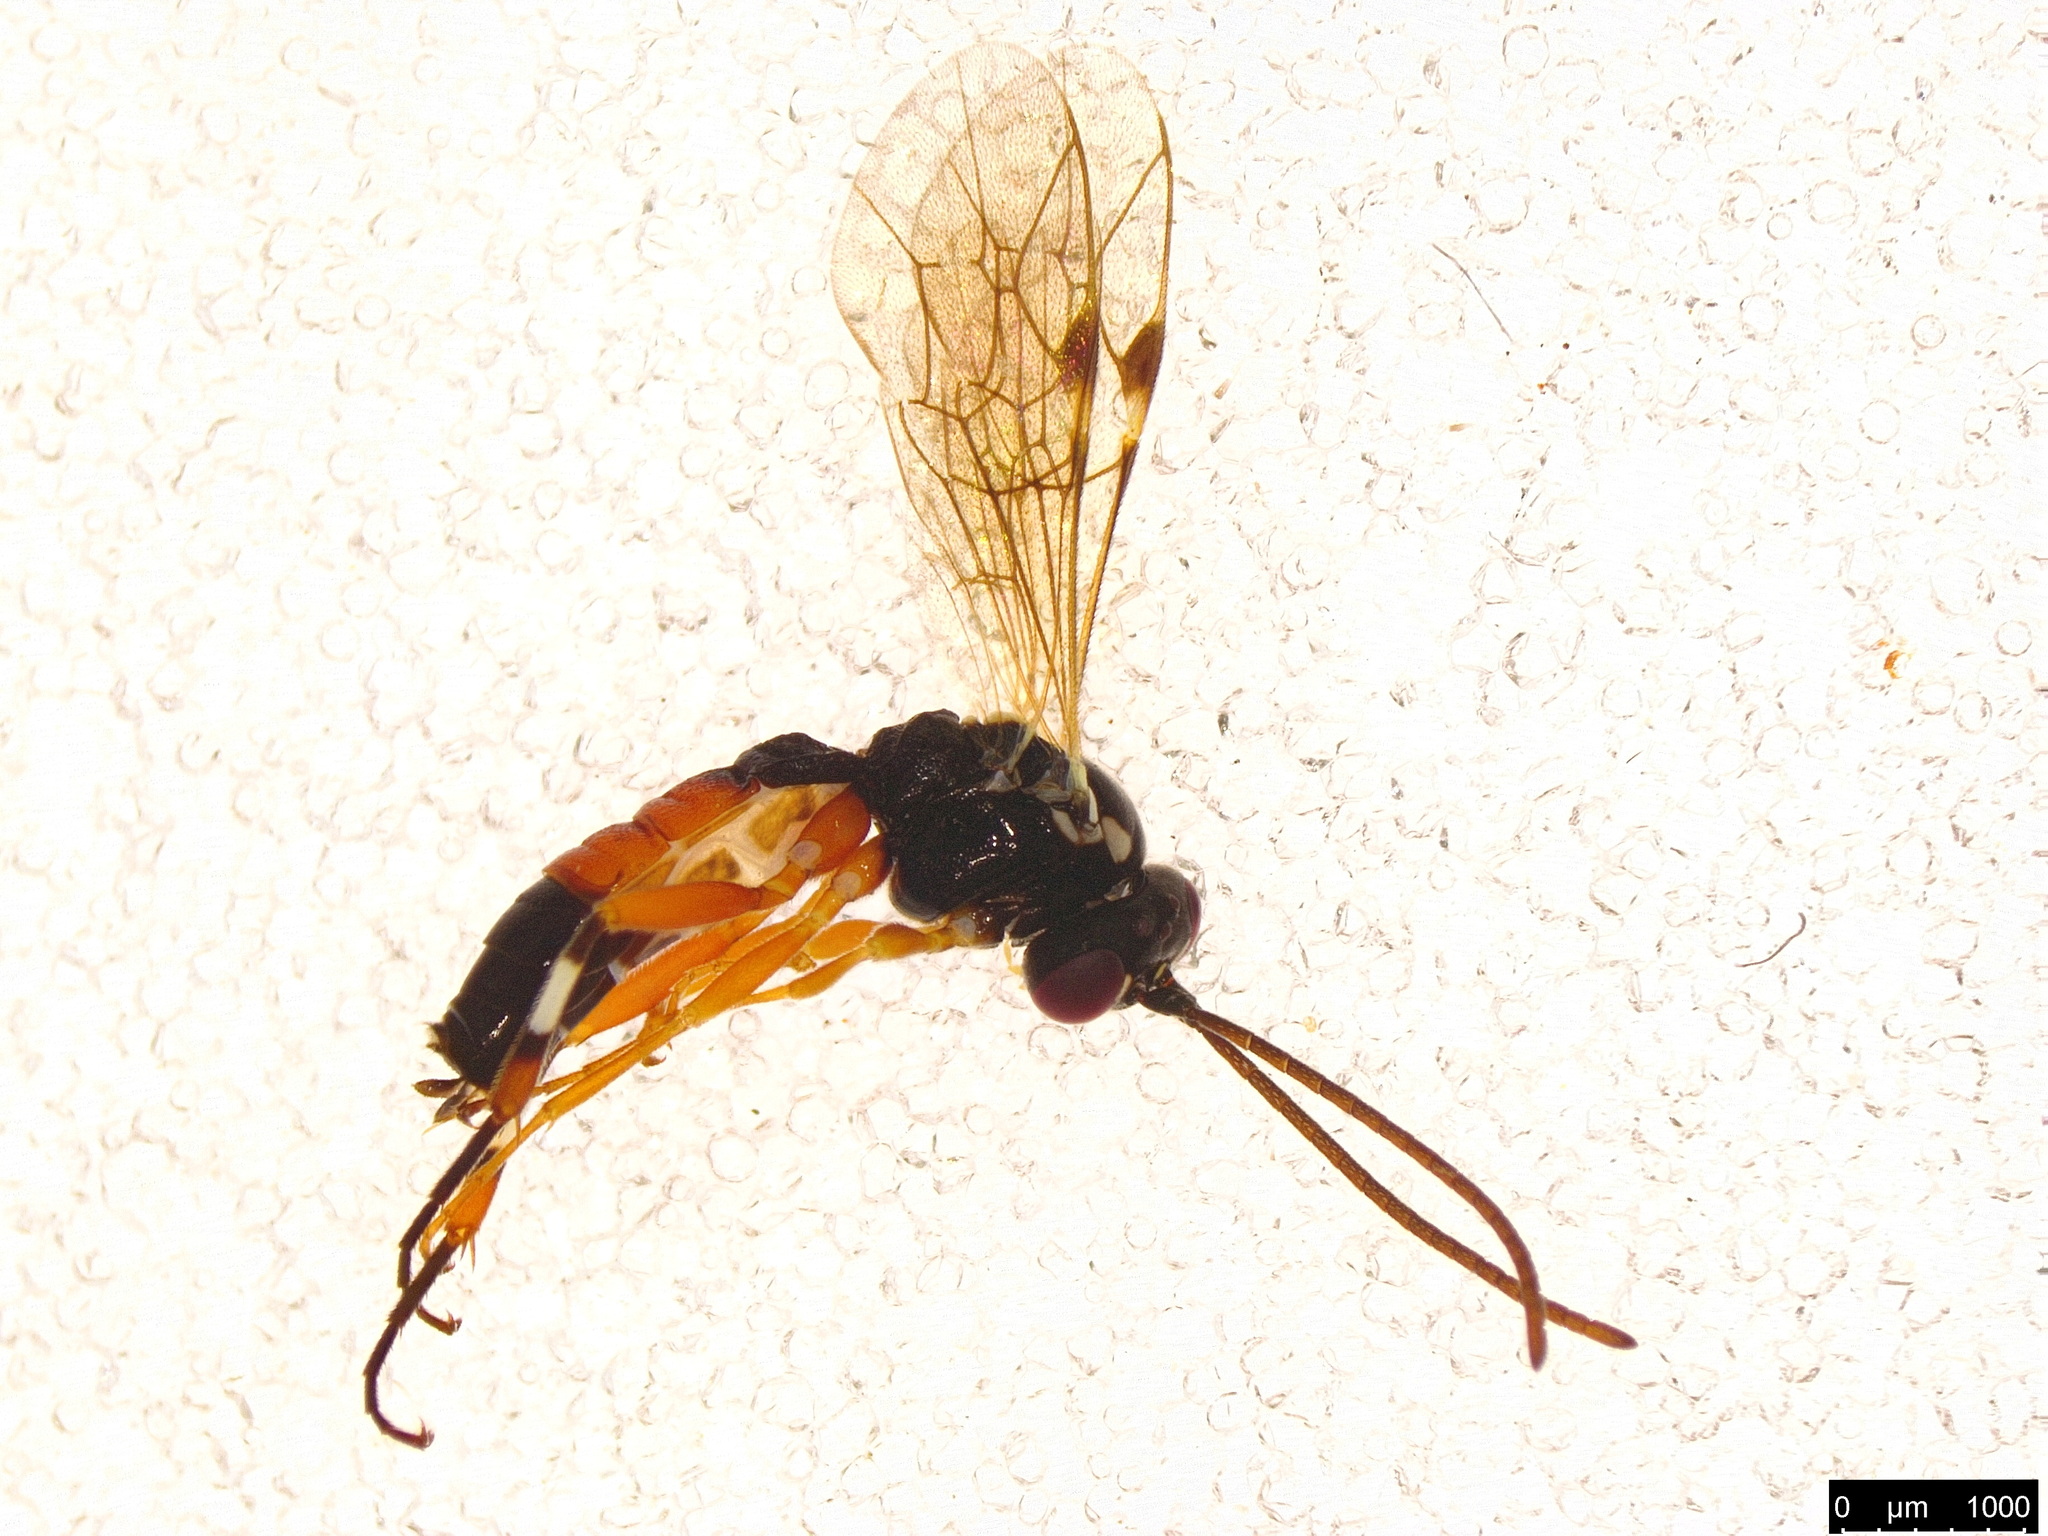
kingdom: Animalia
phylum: Arthropoda
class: Insecta
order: Hymenoptera
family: Ichneumonidae
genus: Diplazon
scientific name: Diplazon laetatorius
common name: Parasitoid wasp
